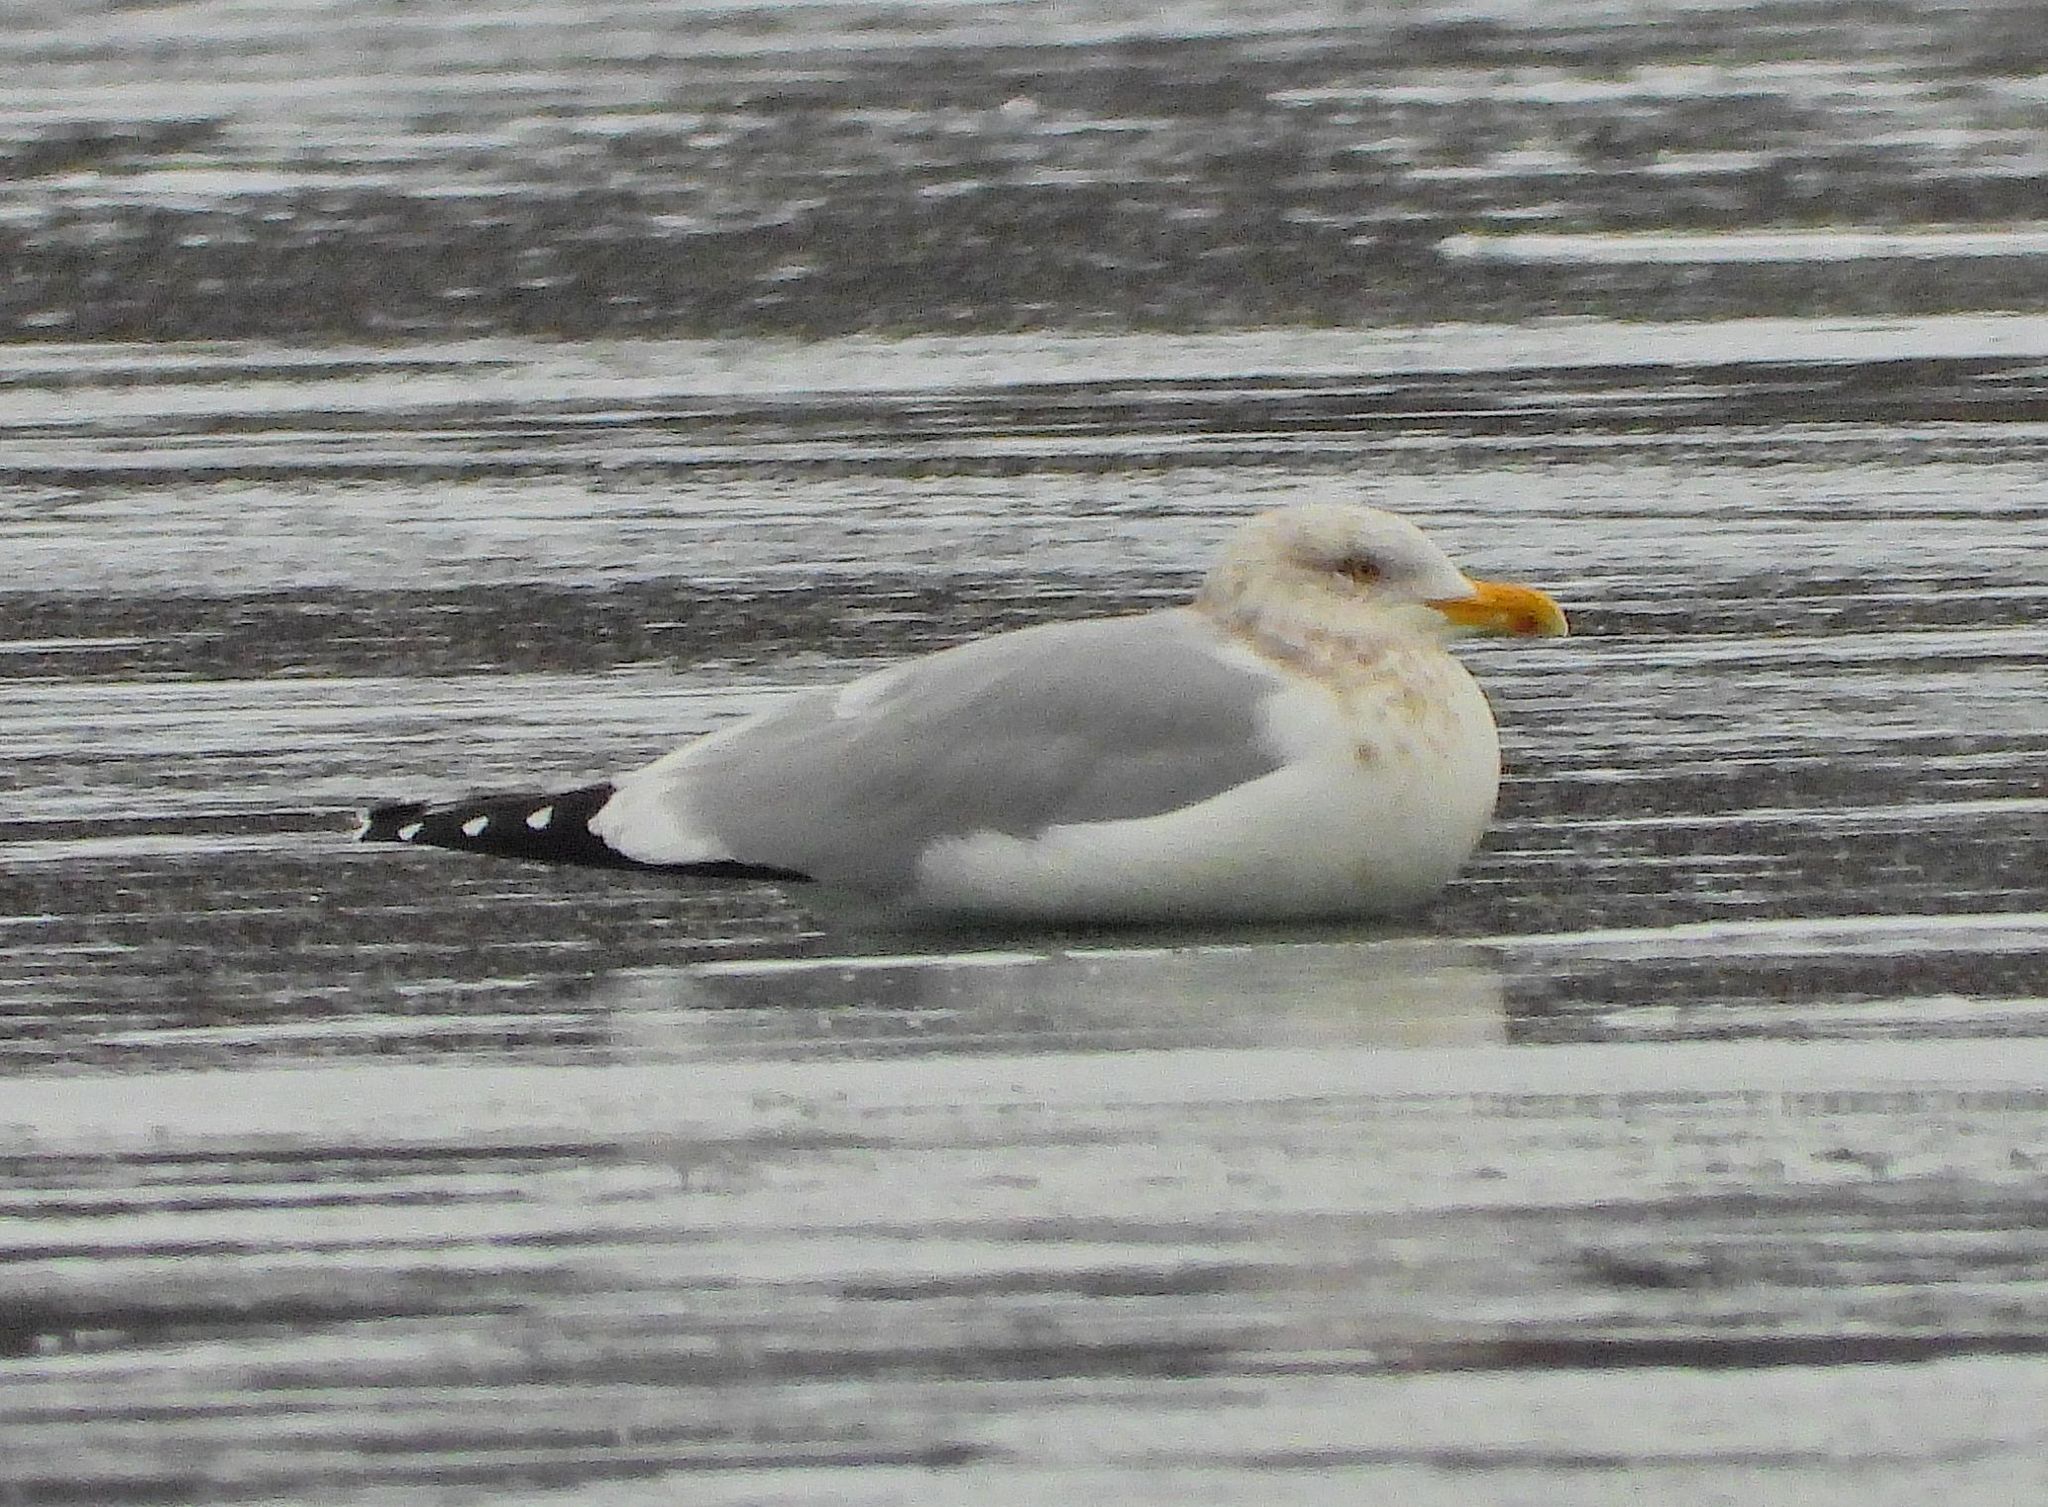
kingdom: Animalia
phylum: Chordata
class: Aves
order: Charadriiformes
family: Laridae
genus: Larus
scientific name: Larus argentatus
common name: Herring gull
